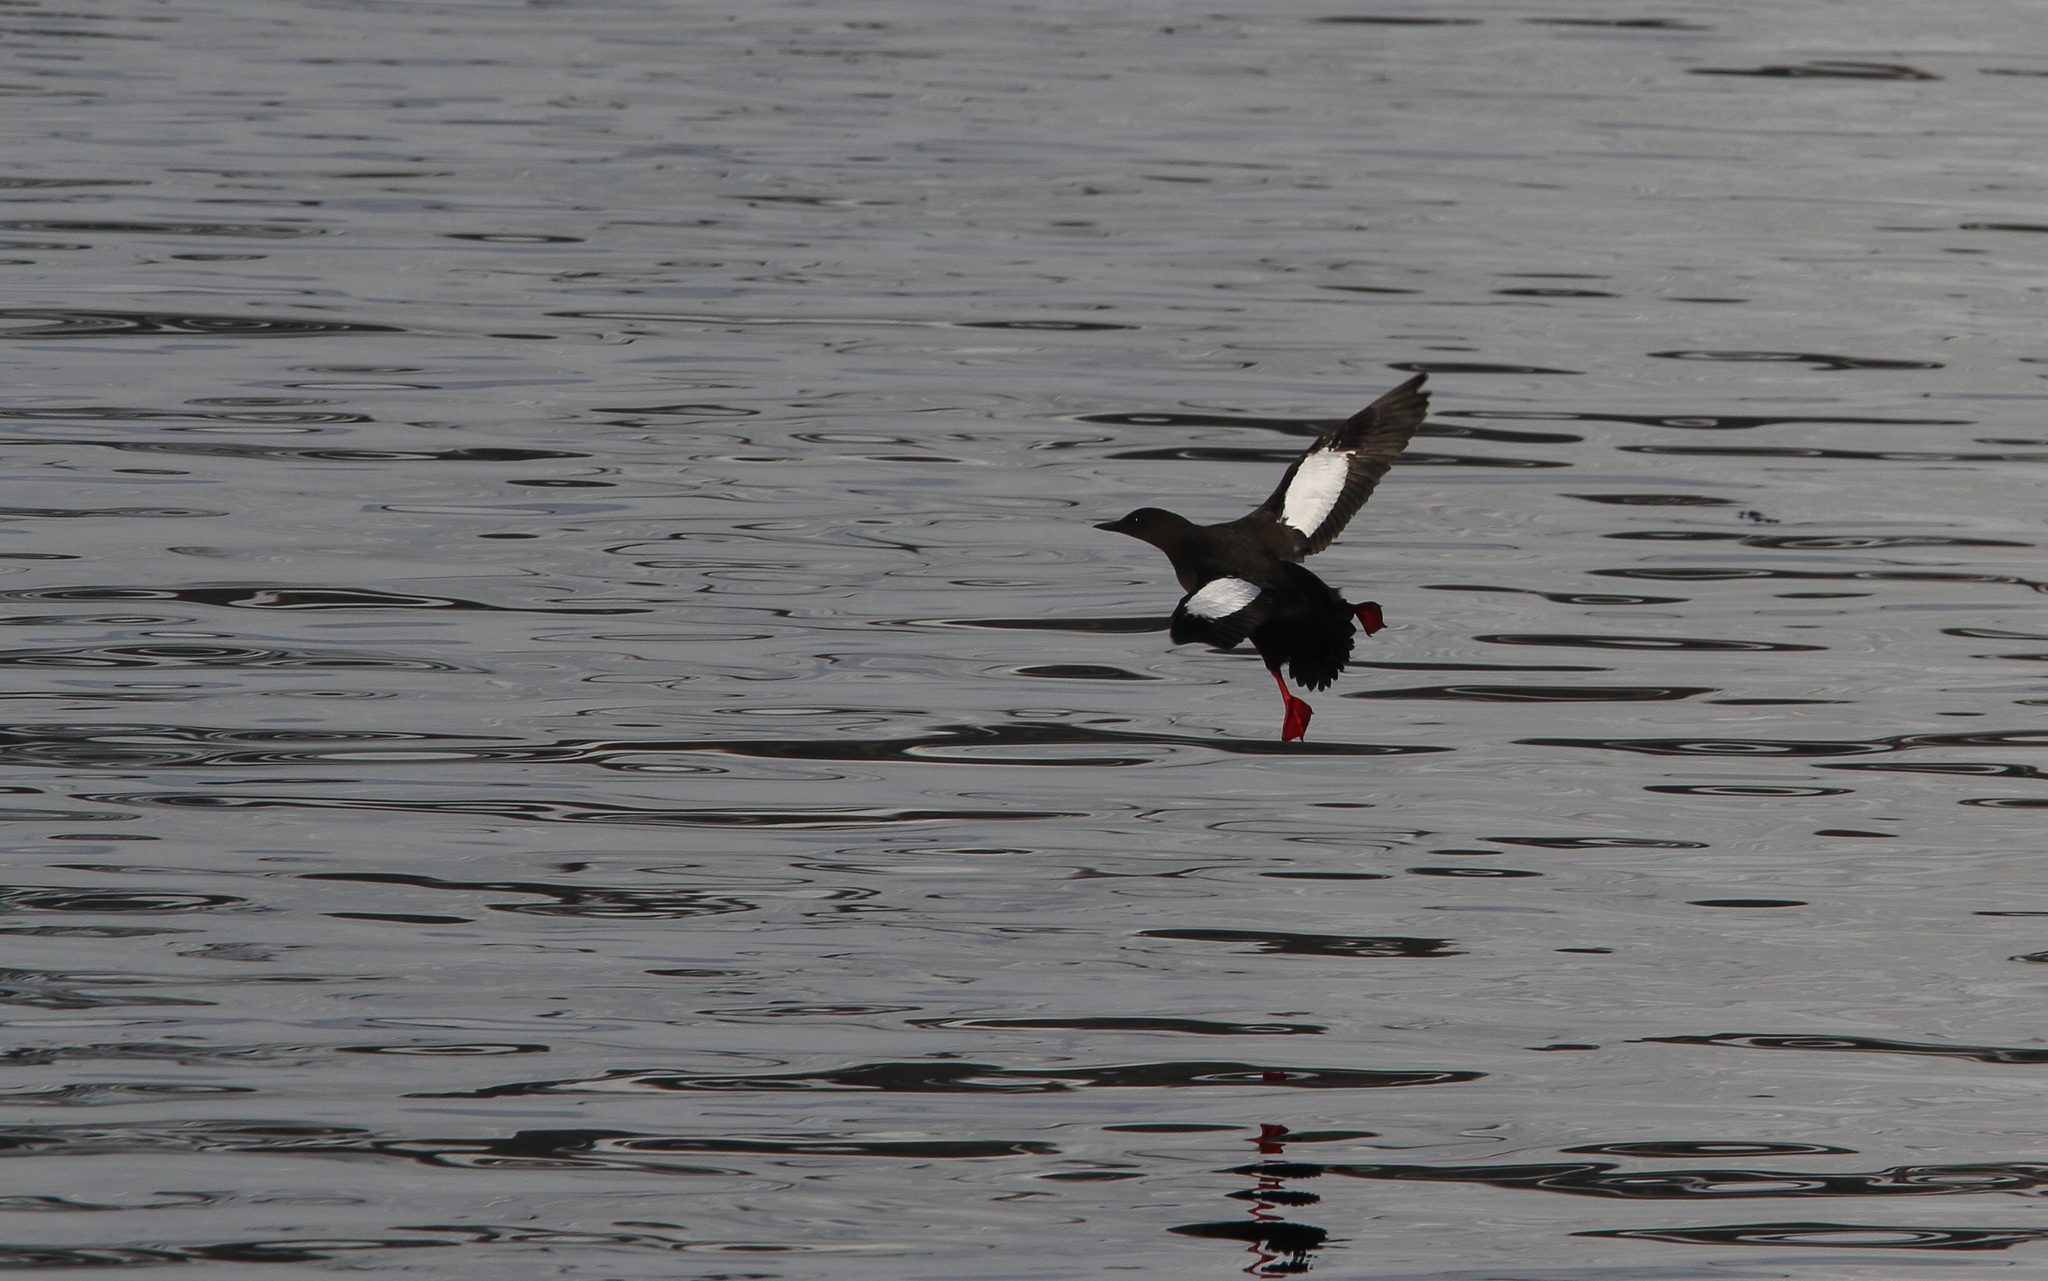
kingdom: Animalia
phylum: Chordata
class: Aves
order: Charadriiformes
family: Alcidae
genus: Cepphus
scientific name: Cepphus grylle
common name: Black guillemot
